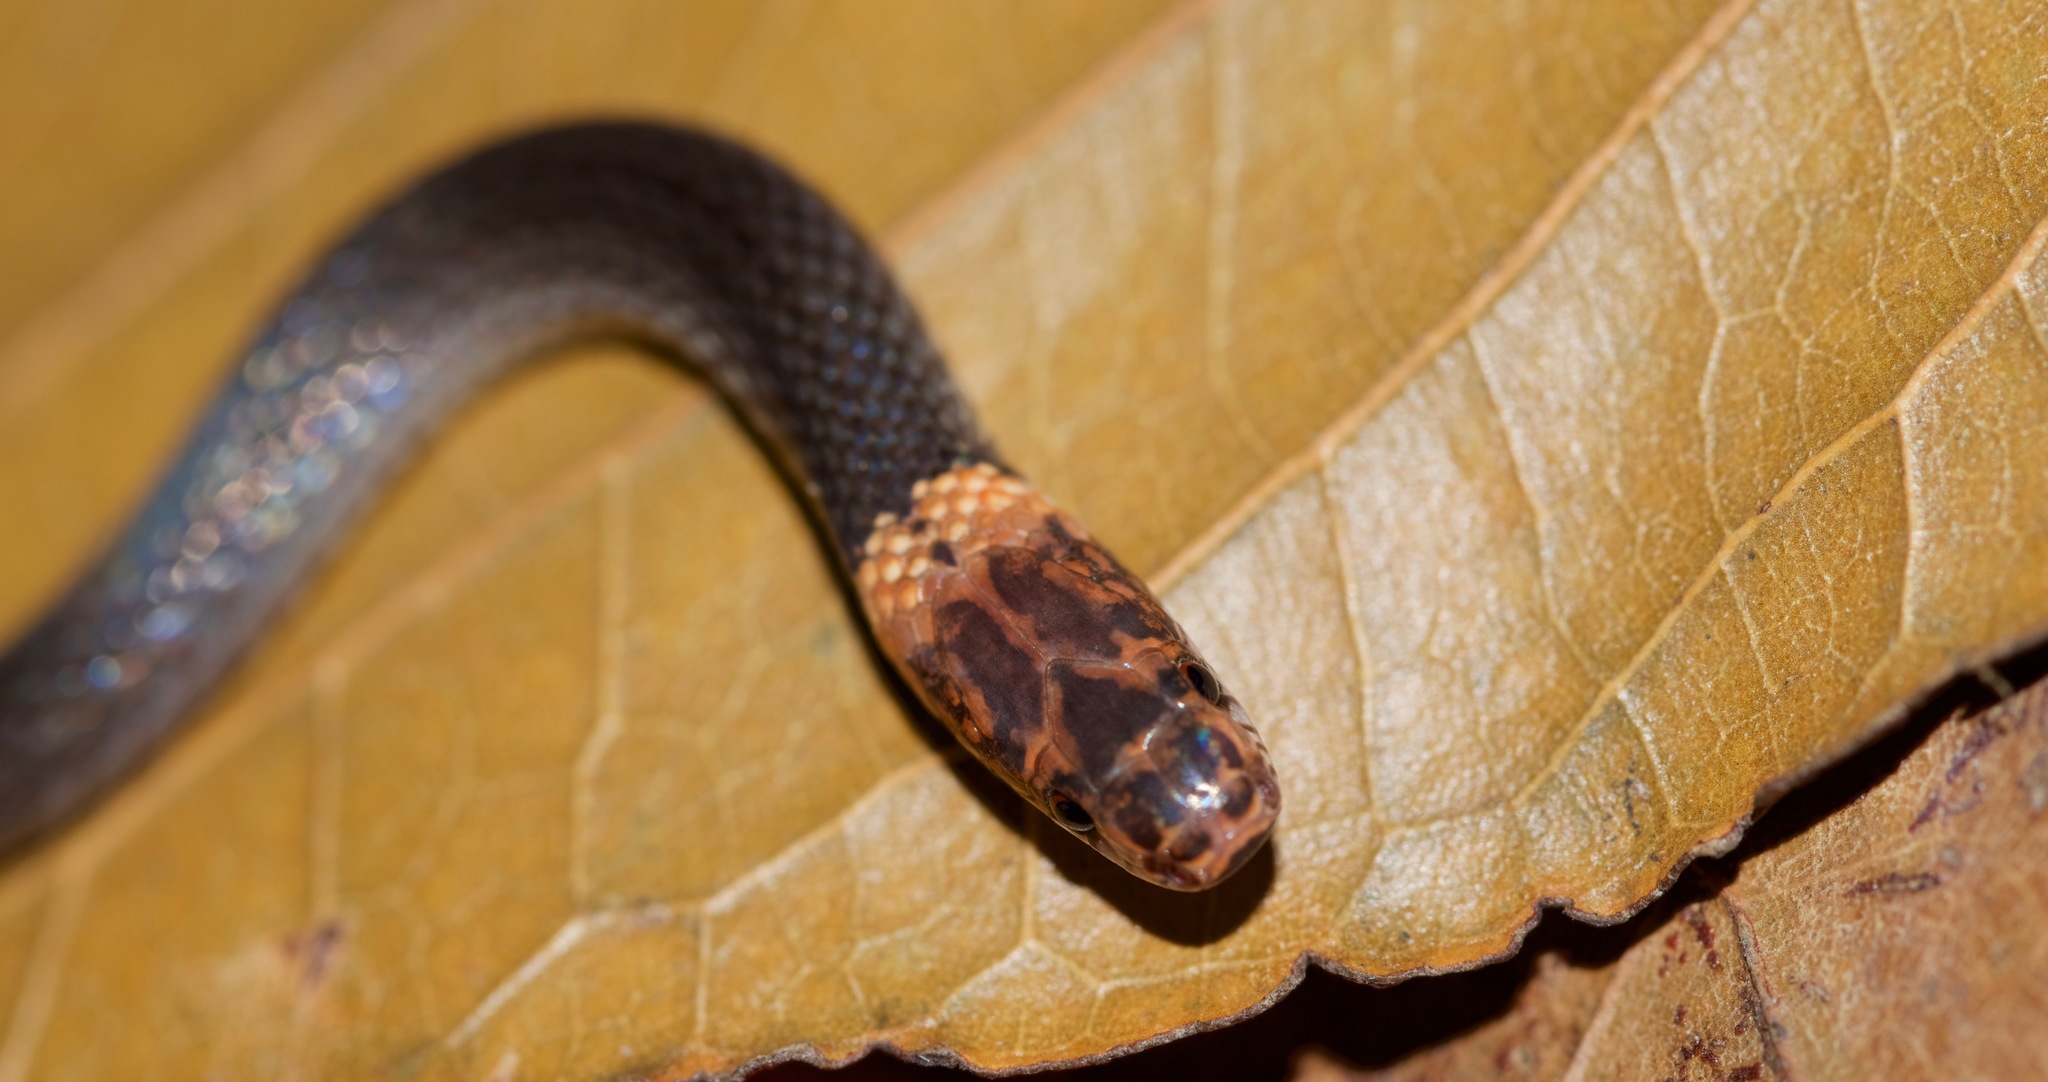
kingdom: Animalia
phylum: Chordata
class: Squamata
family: Colubridae
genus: Rhadinella
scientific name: Rhadinella xerophila
